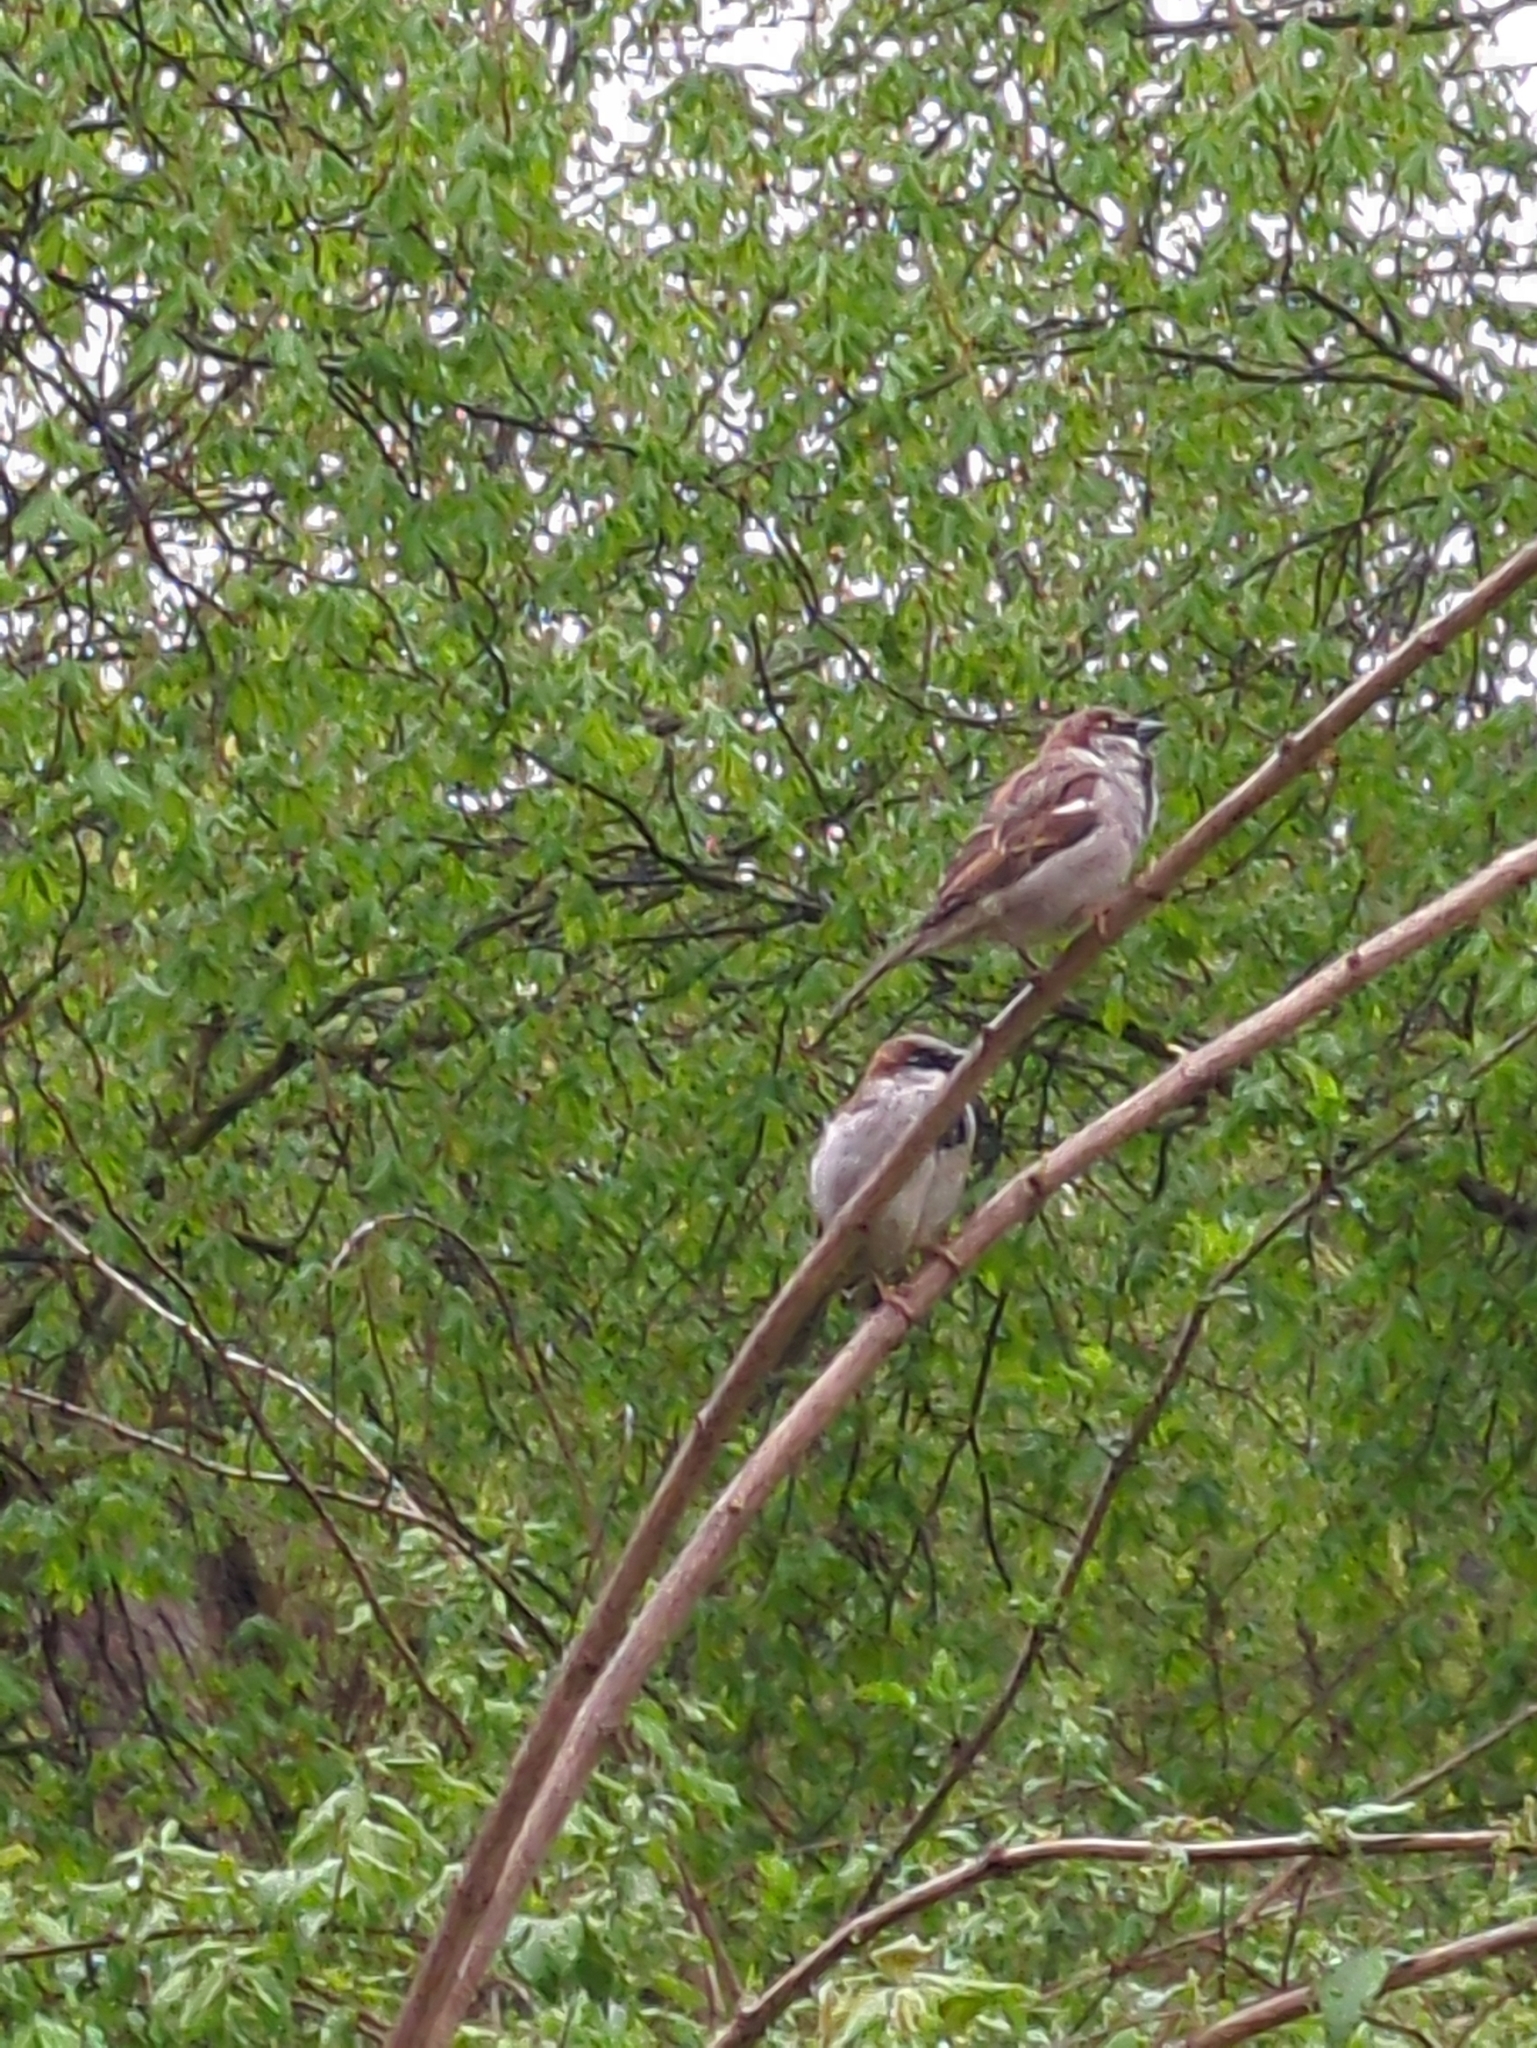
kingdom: Animalia
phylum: Chordata
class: Aves
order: Passeriformes
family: Passeridae
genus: Passer
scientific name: Passer domesticus
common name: House sparrow
